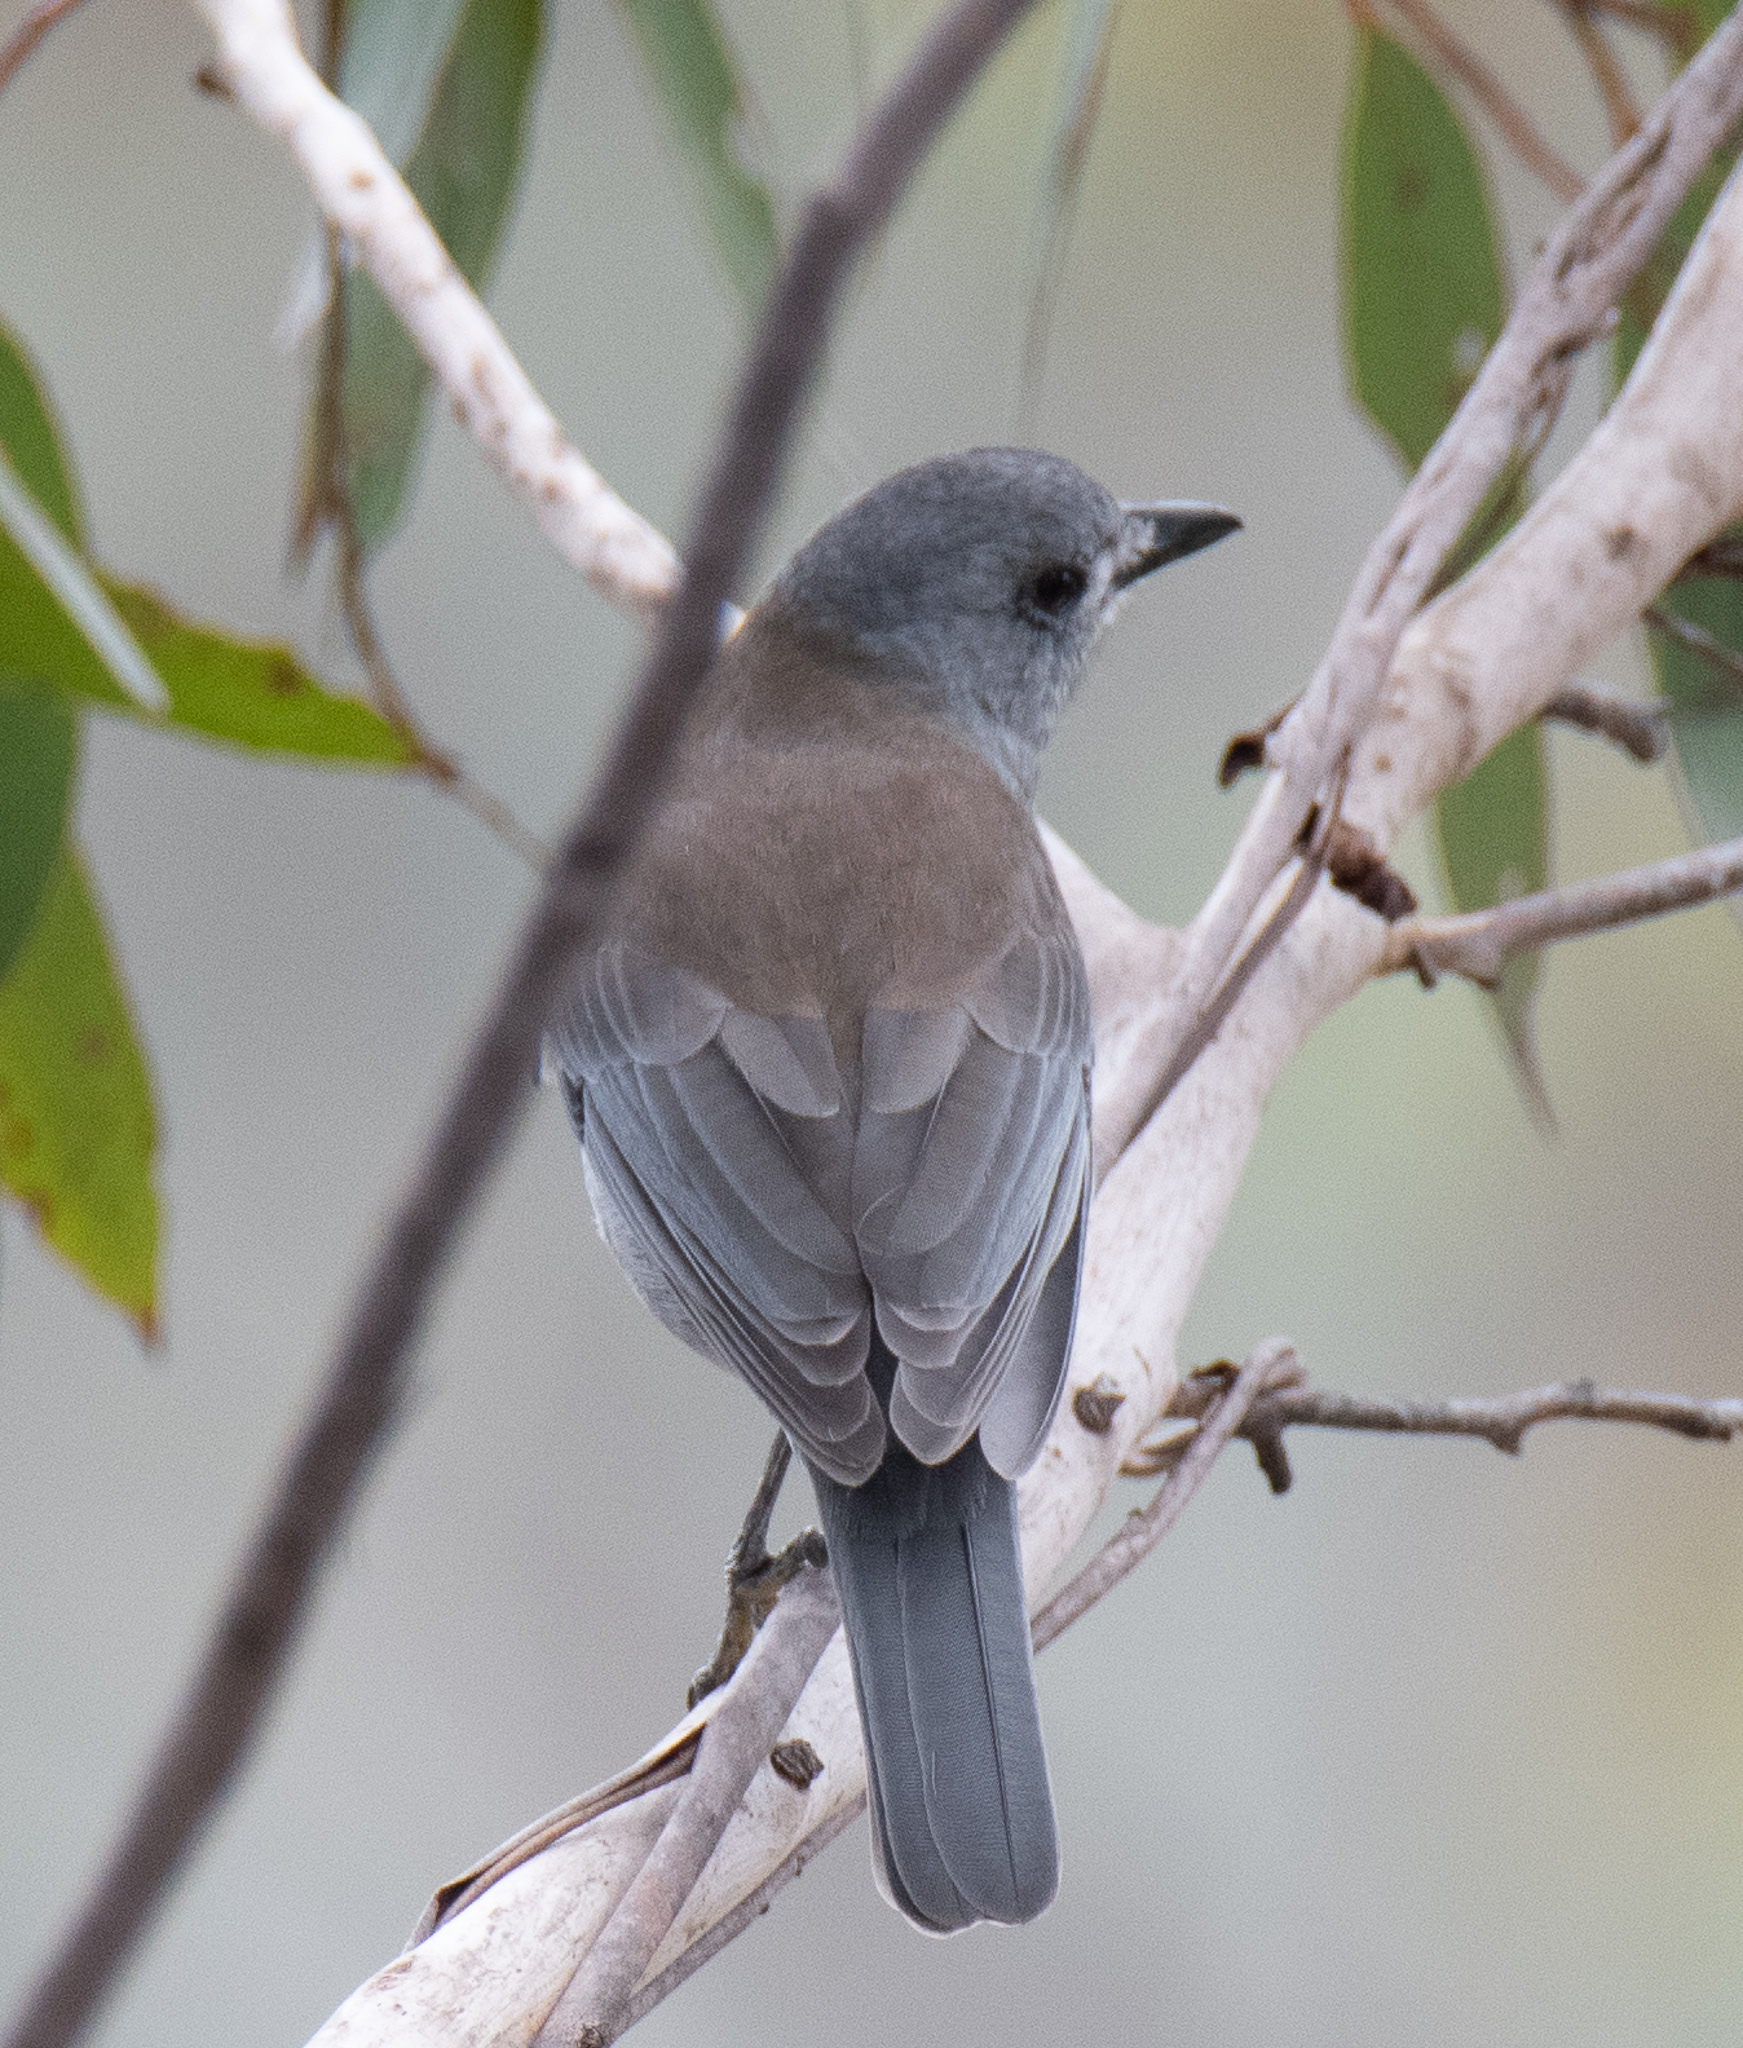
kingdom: Animalia
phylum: Chordata
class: Aves
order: Passeriformes
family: Pachycephalidae
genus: Colluricincla
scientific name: Colluricincla harmonica
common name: Grey shrikethrush
